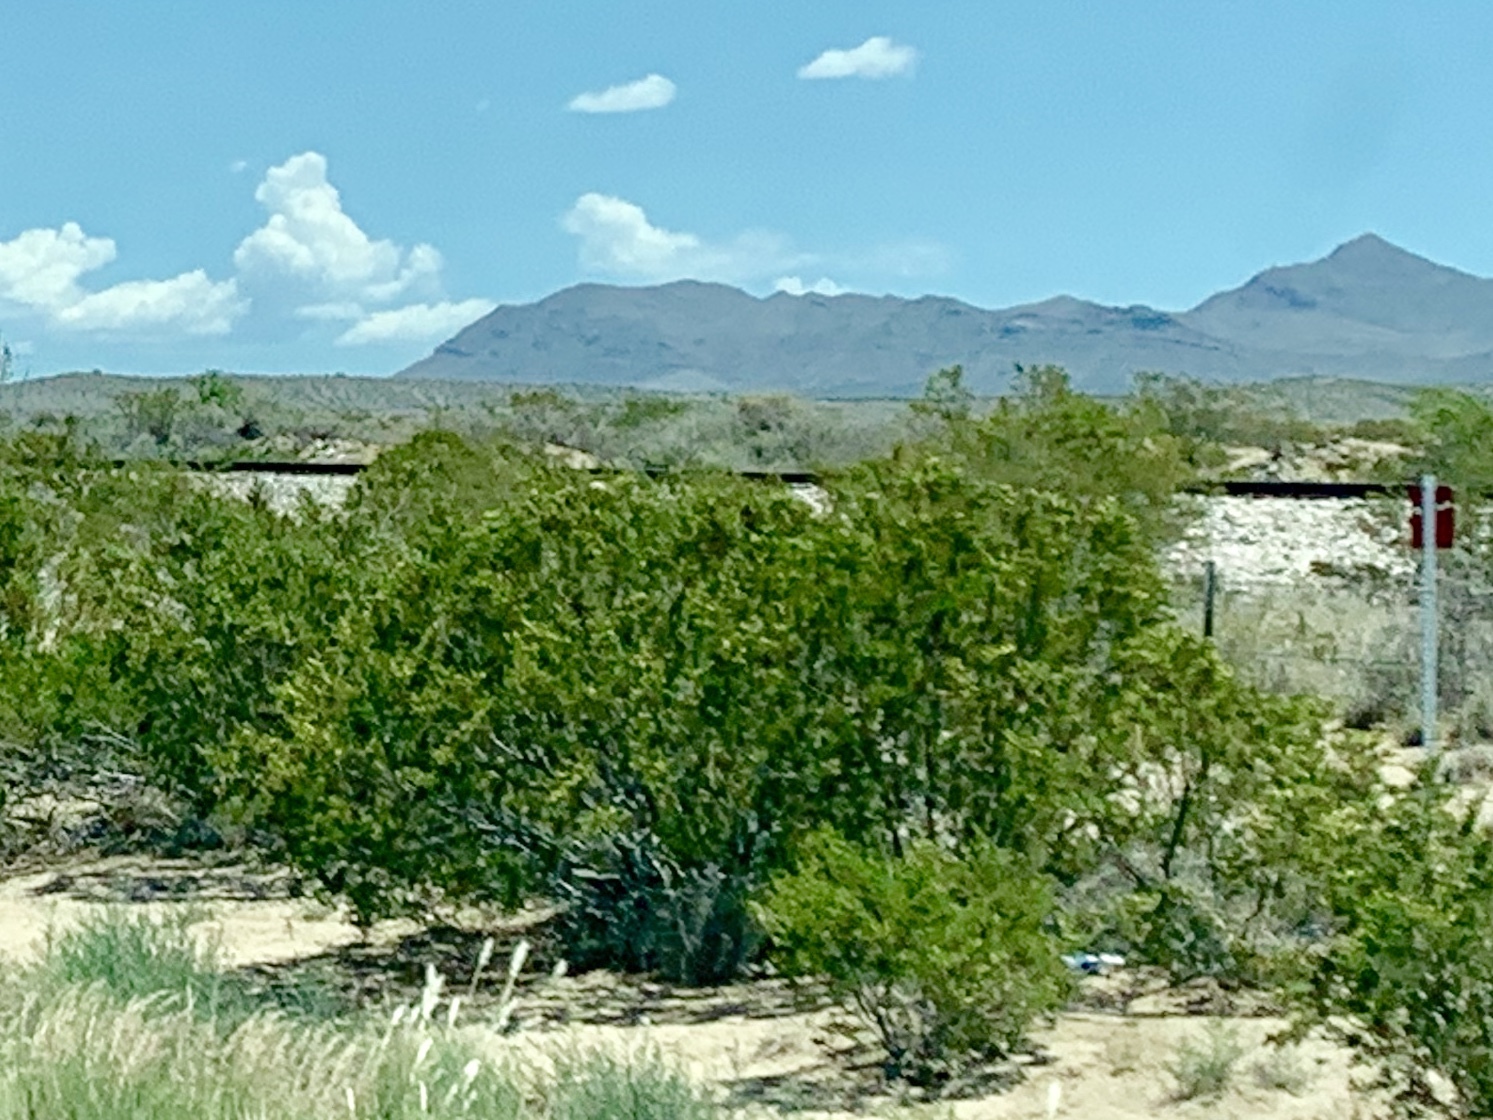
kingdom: Plantae
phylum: Tracheophyta
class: Magnoliopsida
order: Zygophyllales
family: Zygophyllaceae
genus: Larrea
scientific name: Larrea tridentata
